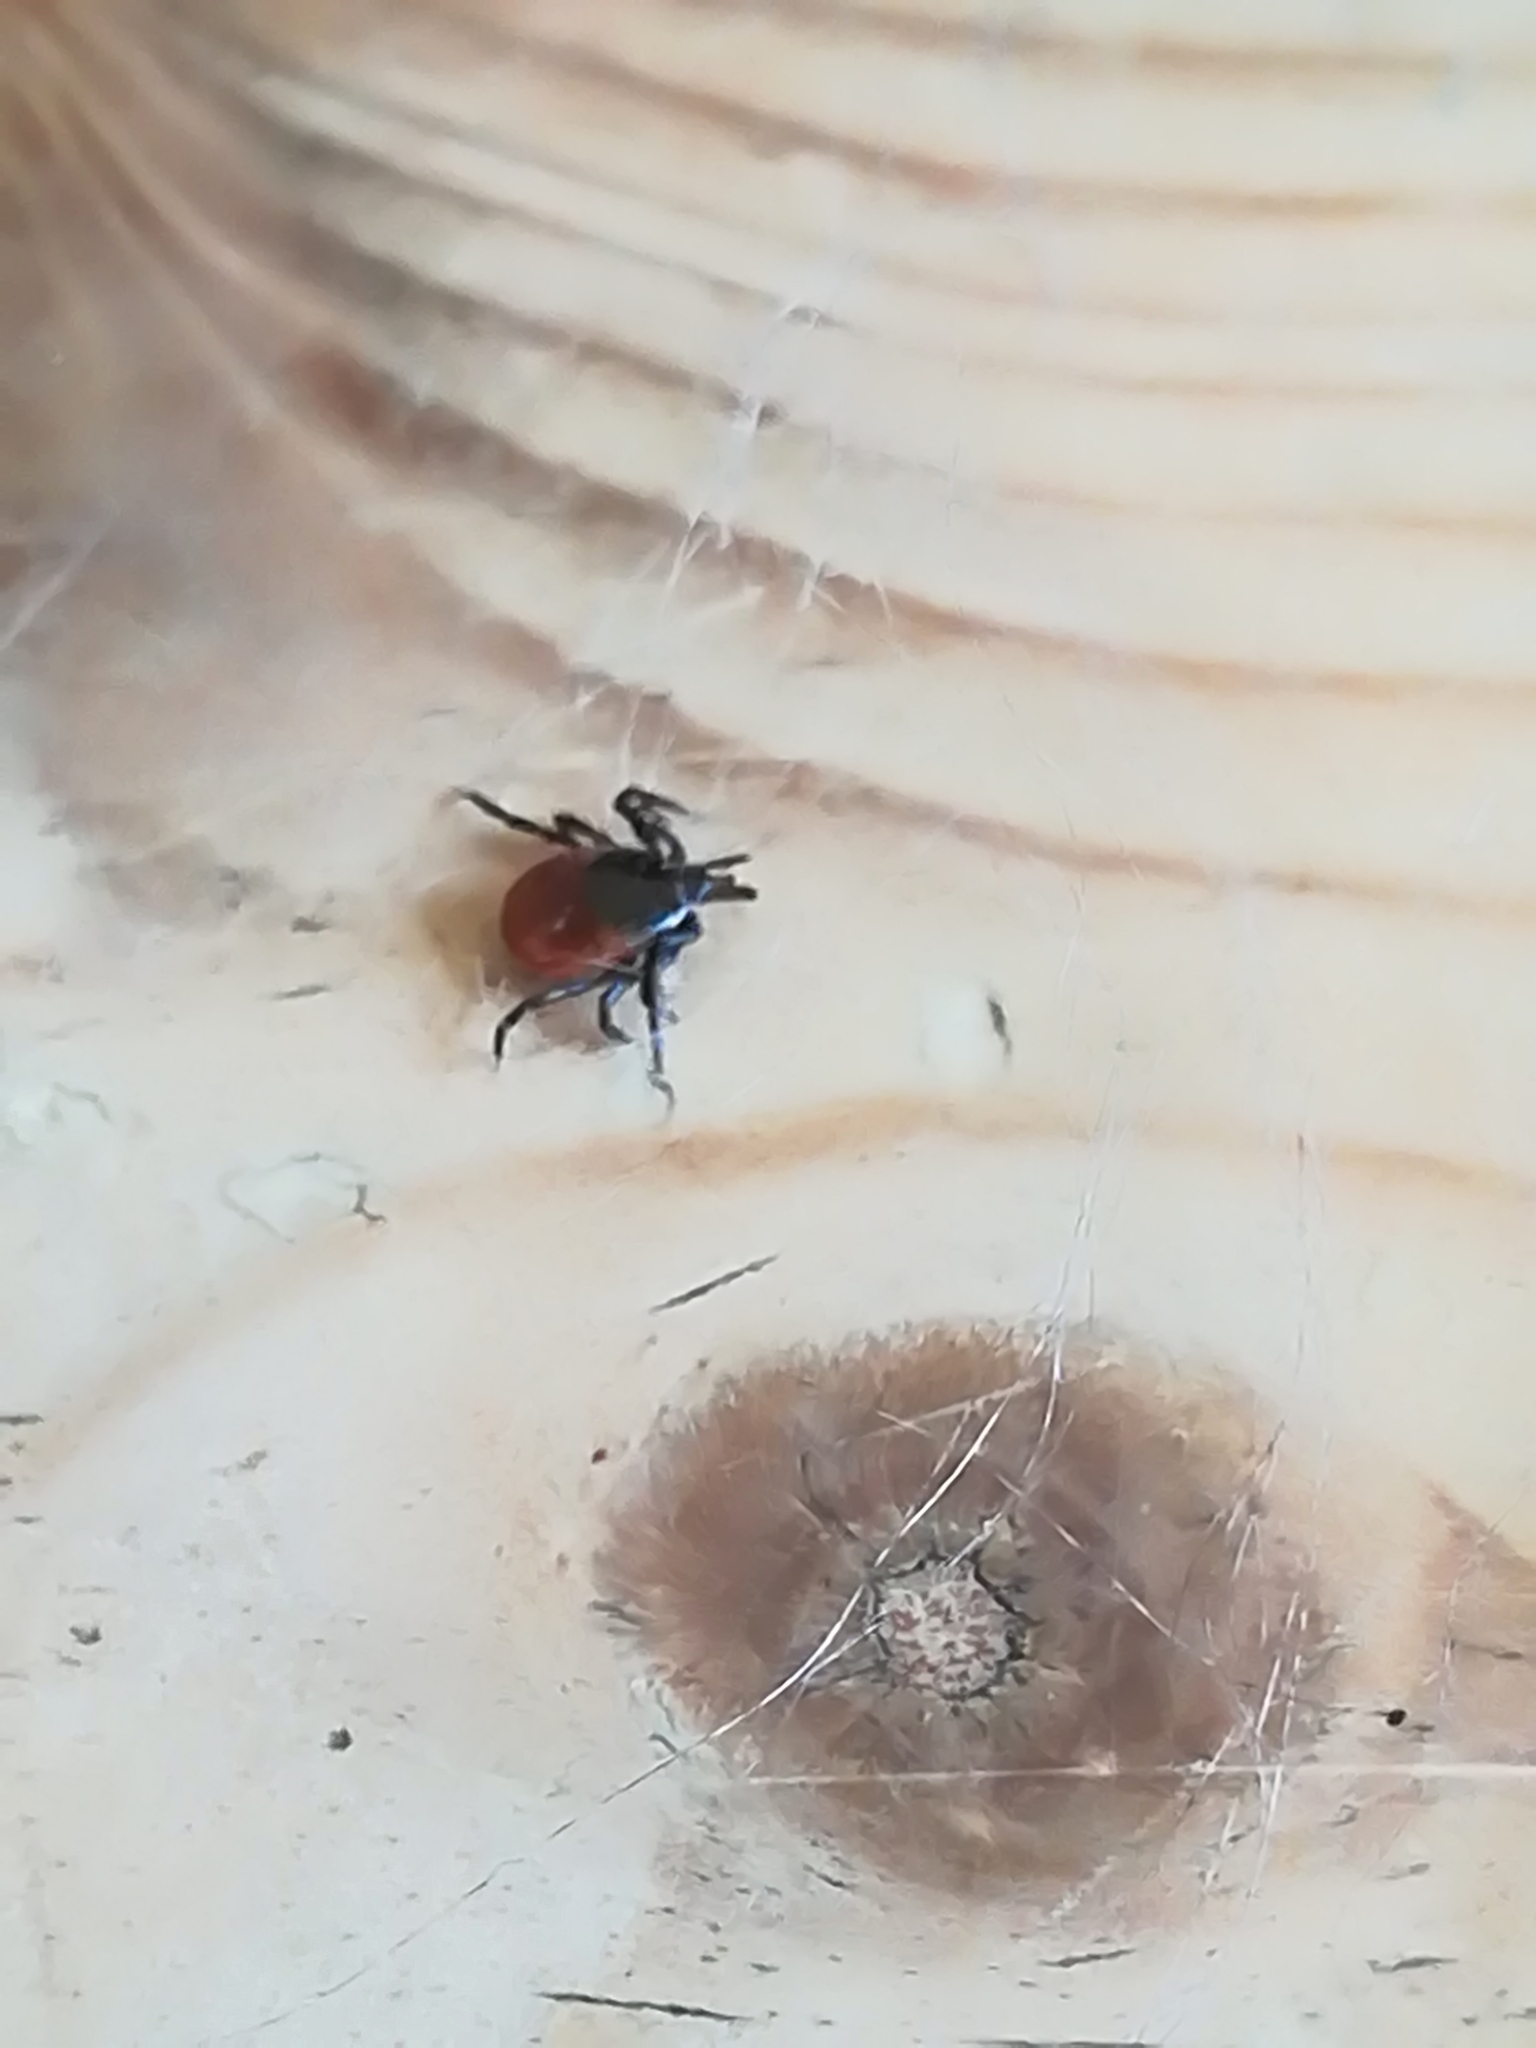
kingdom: Animalia
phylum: Arthropoda
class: Arachnida
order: Ixodida
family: Ixodidae
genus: Ixodes
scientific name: Ixodes ricinus
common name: Castor bean tick
